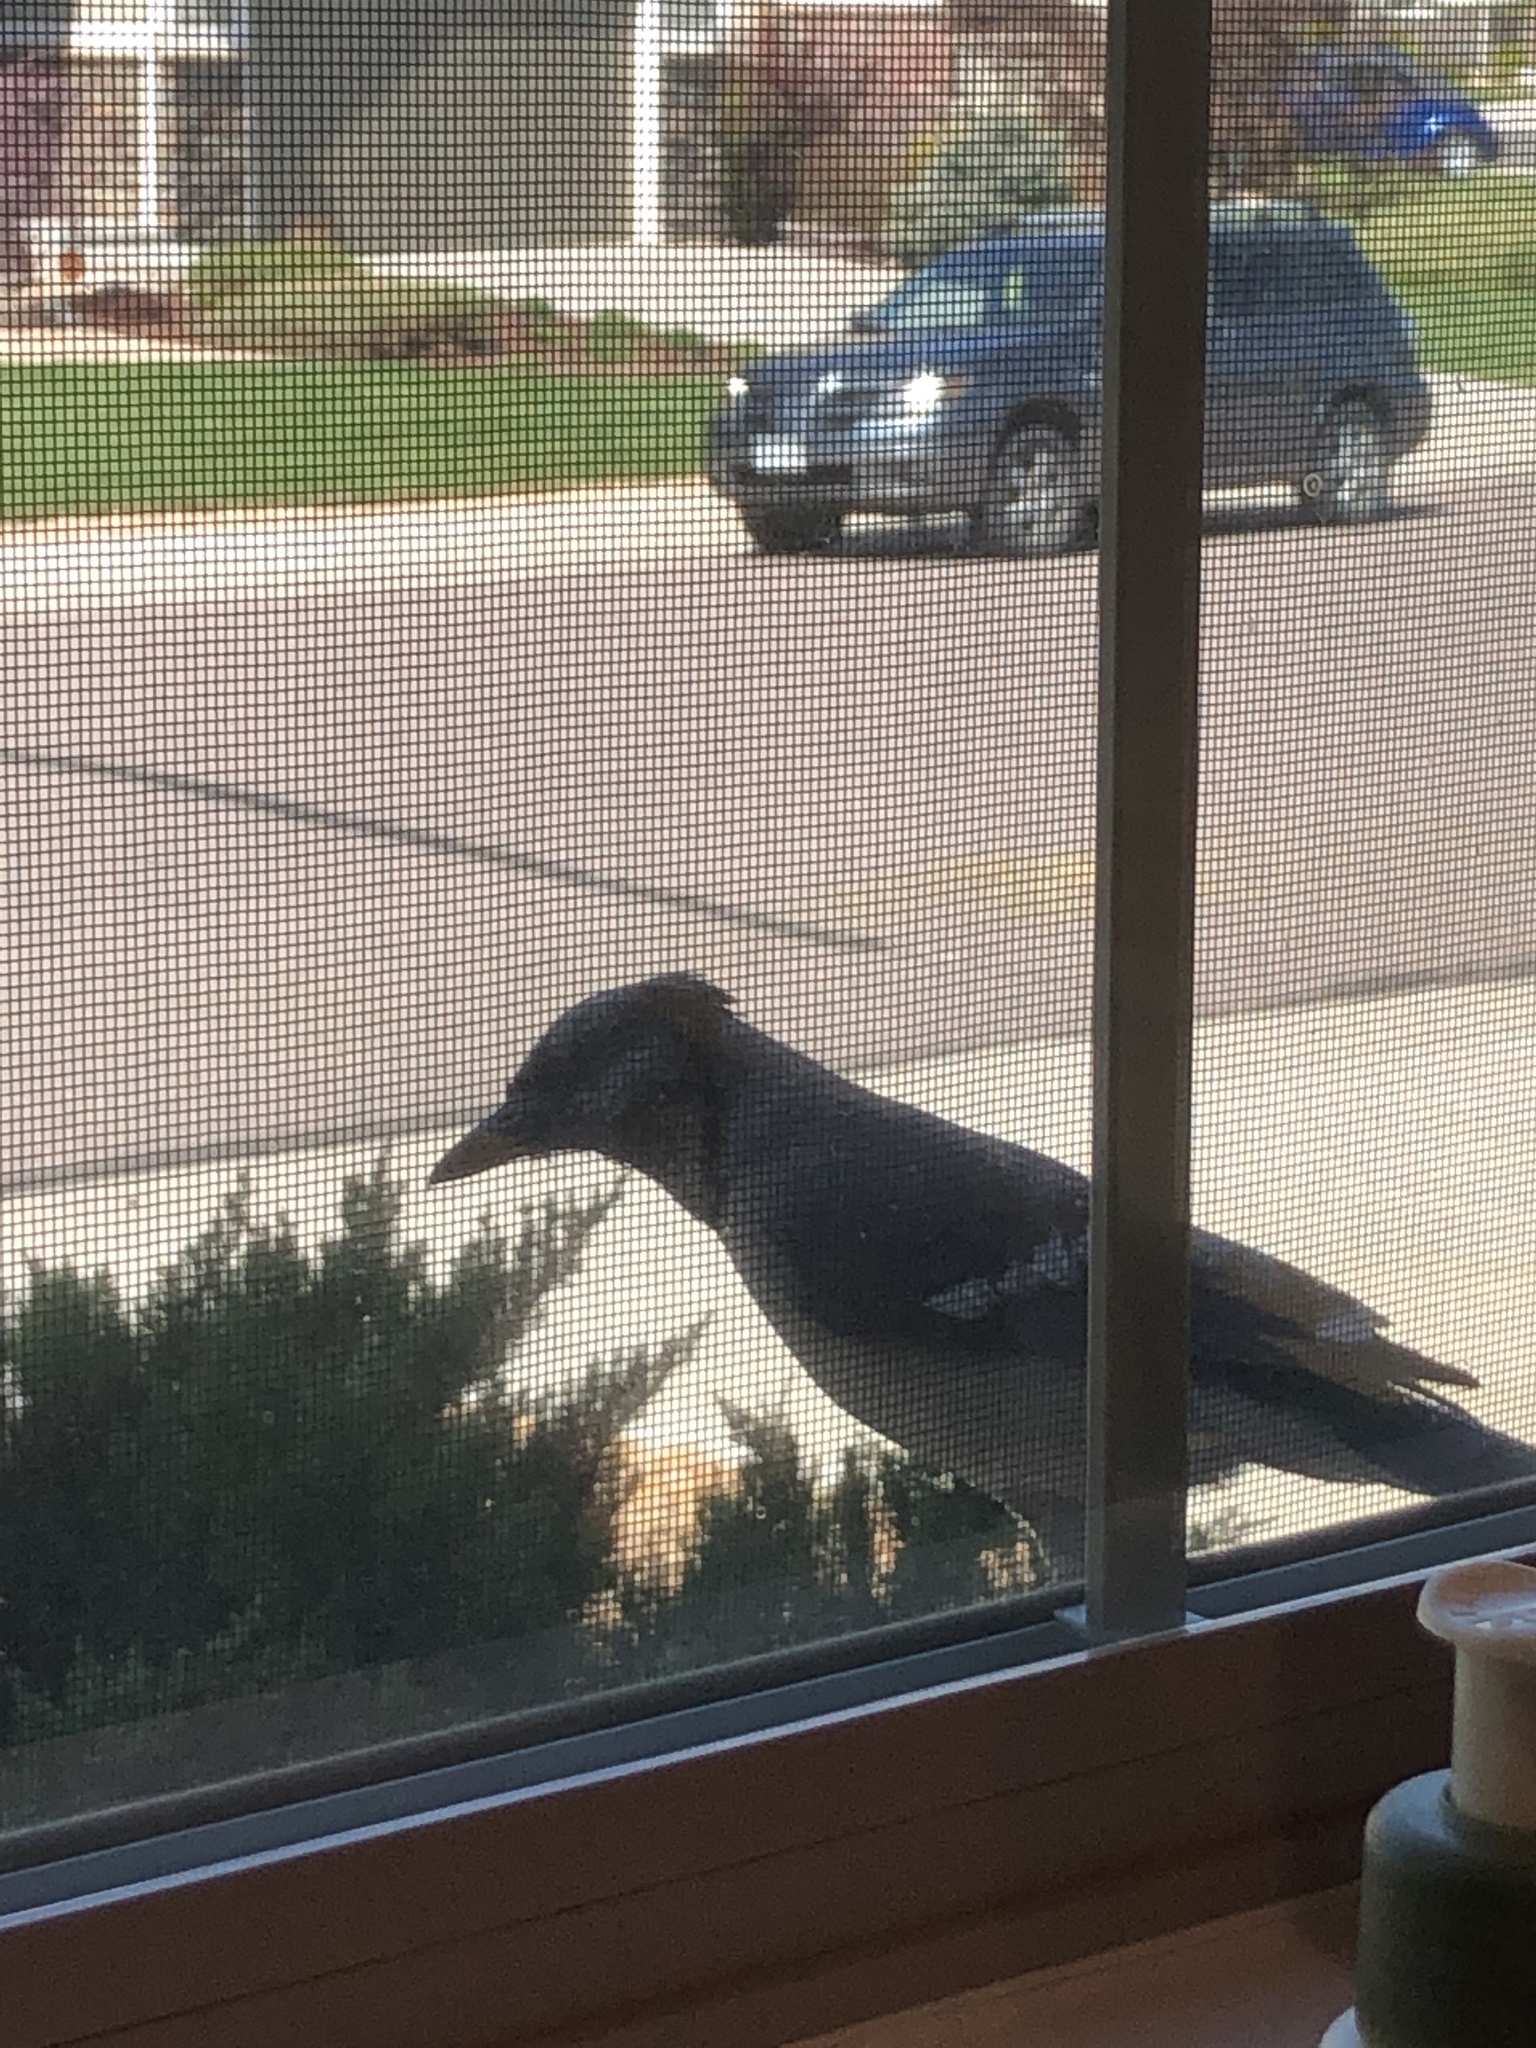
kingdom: Animalia
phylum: Chordata
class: Aves
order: Passeriformes
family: Corvidae
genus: Cyanocitta
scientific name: Cyanocitta cristata
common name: Blue jay
